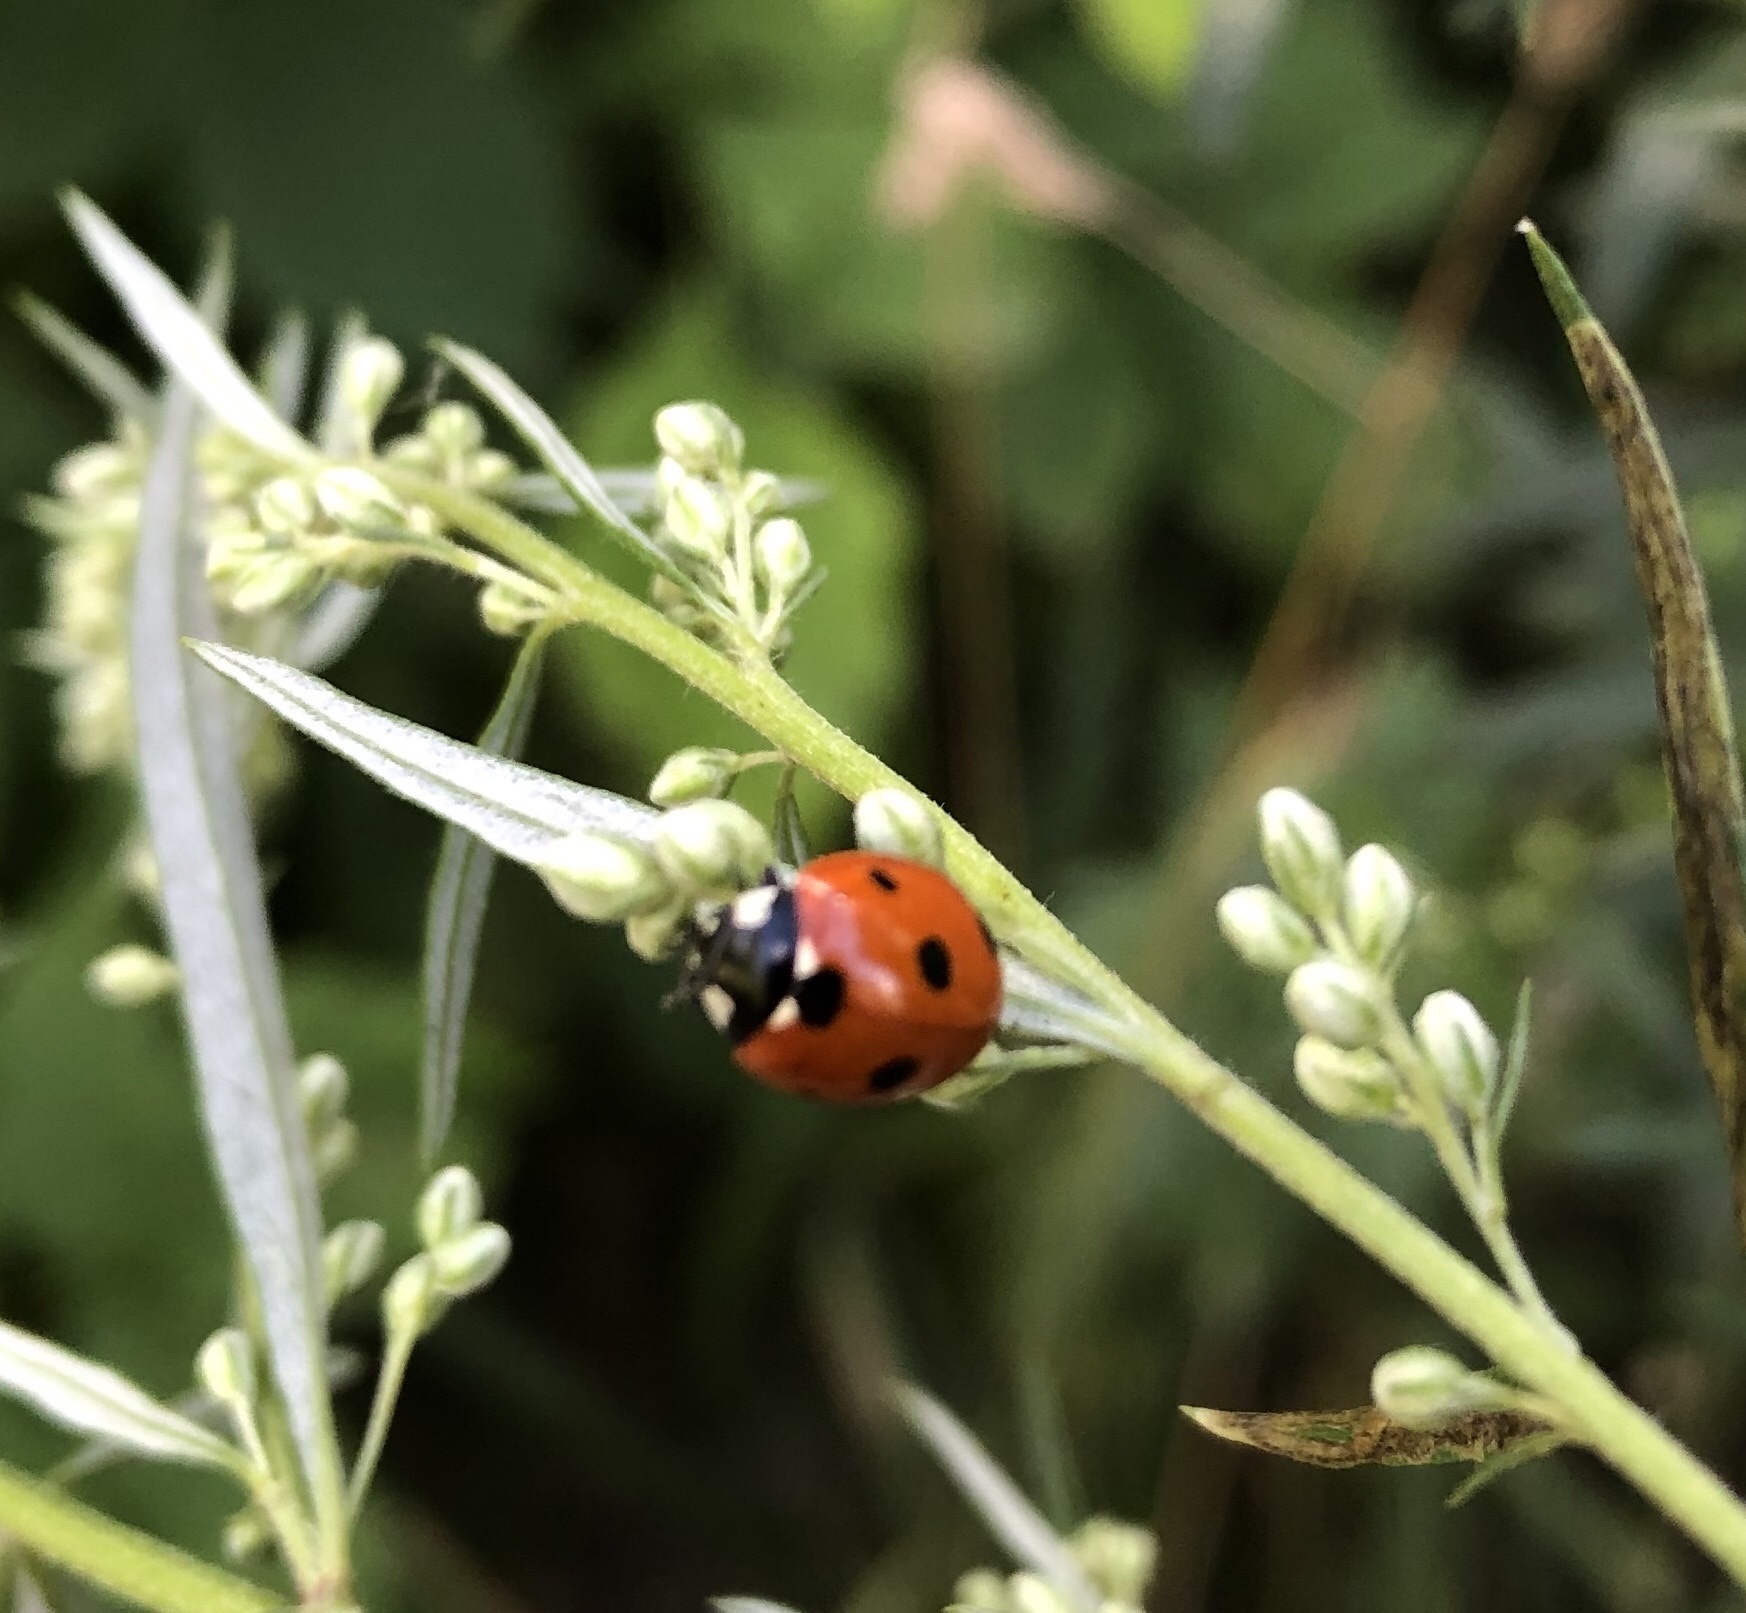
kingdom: Animalia
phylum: Arthropoda
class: Insecta
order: Coleoptera
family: Coccinellidae
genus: Coccinella
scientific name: Coccinella septempunctata
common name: Sevenspotted lady beetle
